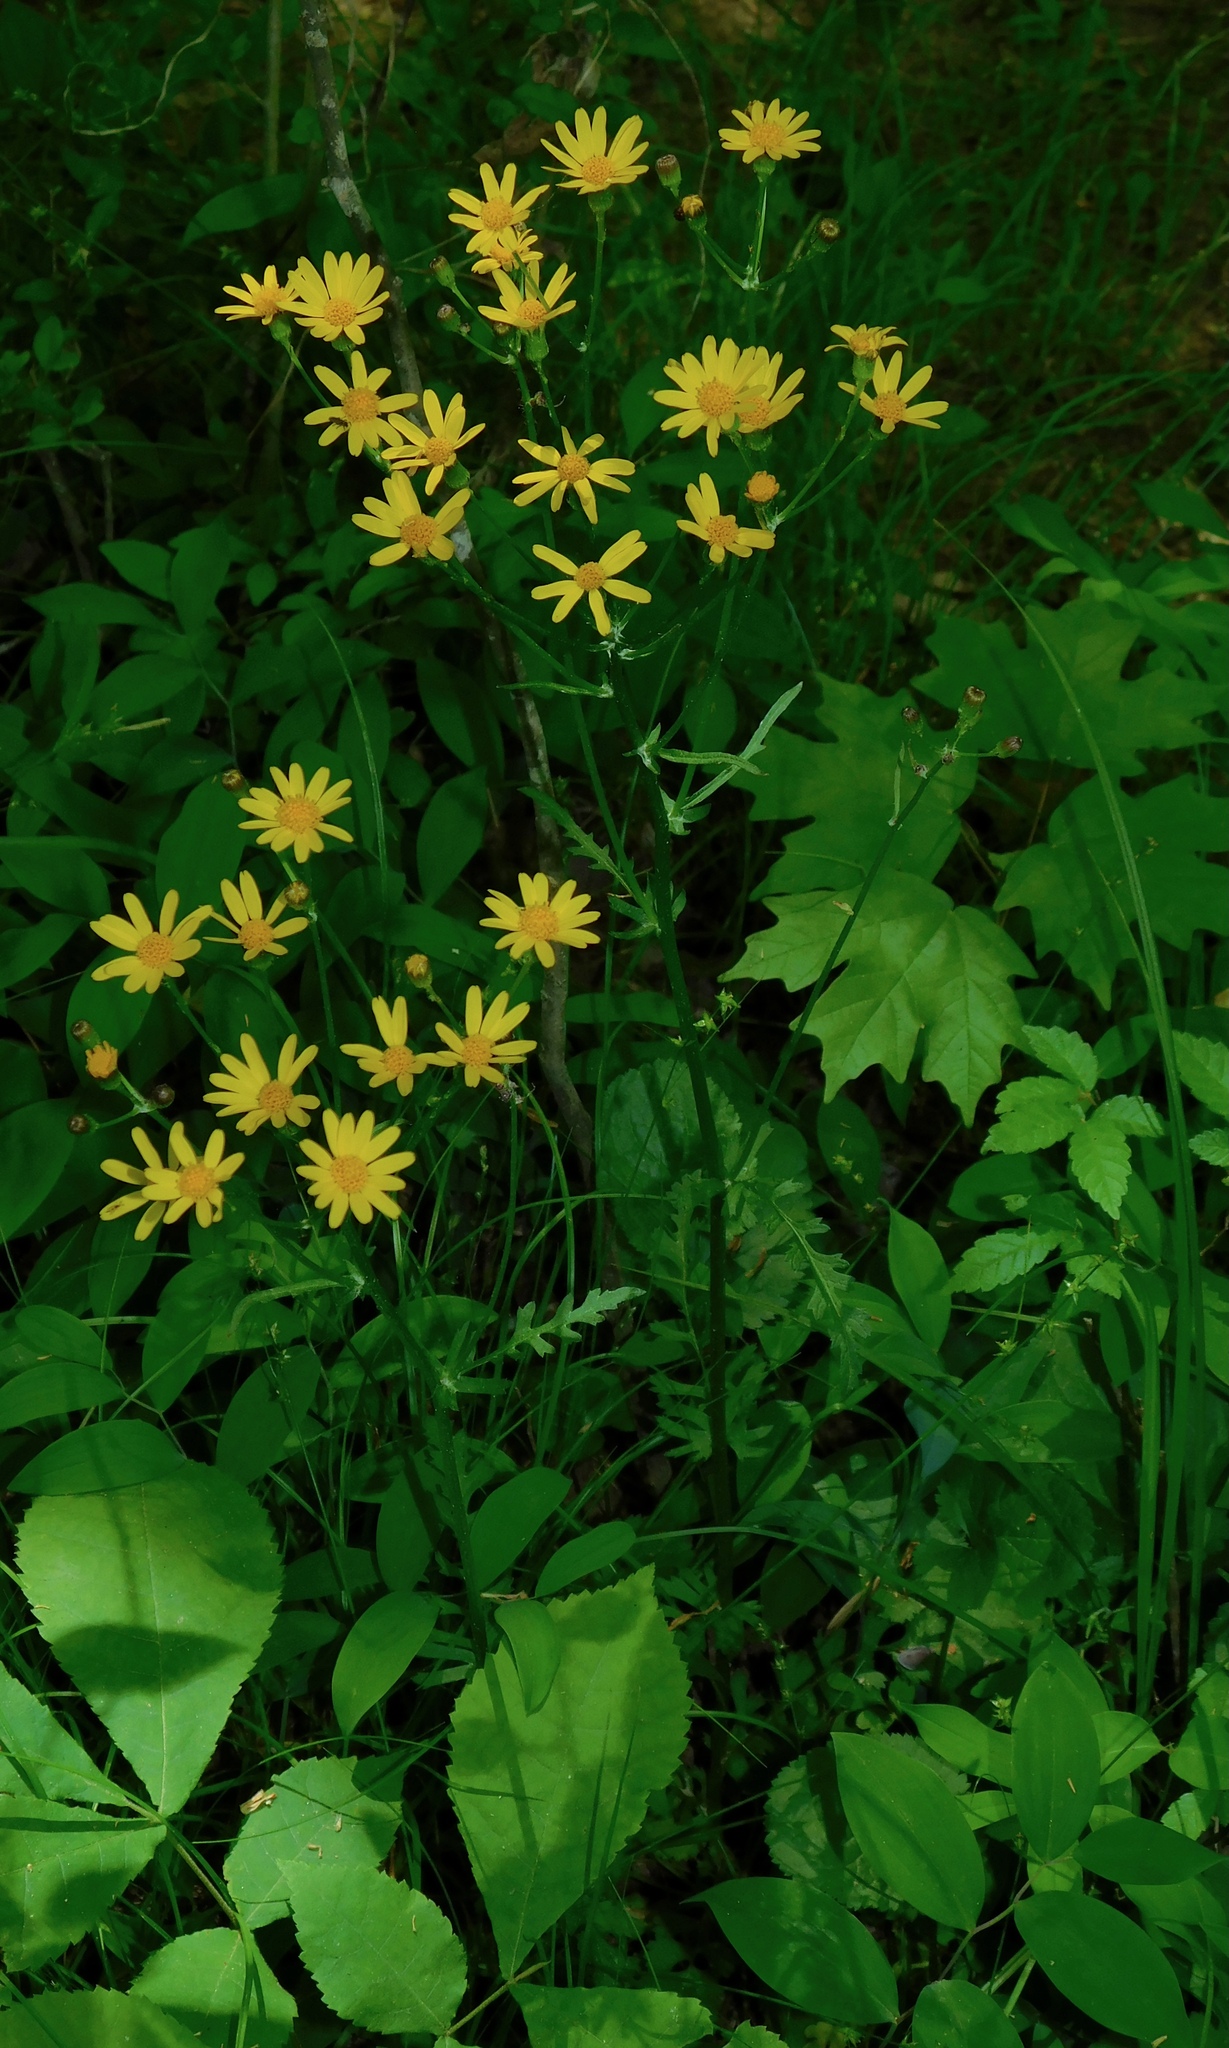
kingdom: Plantae
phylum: Tracheophyta
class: Magnoliopsida
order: Asterales
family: Asteraceae
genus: Packera
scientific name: Packera aurea
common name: Golden groundsel
